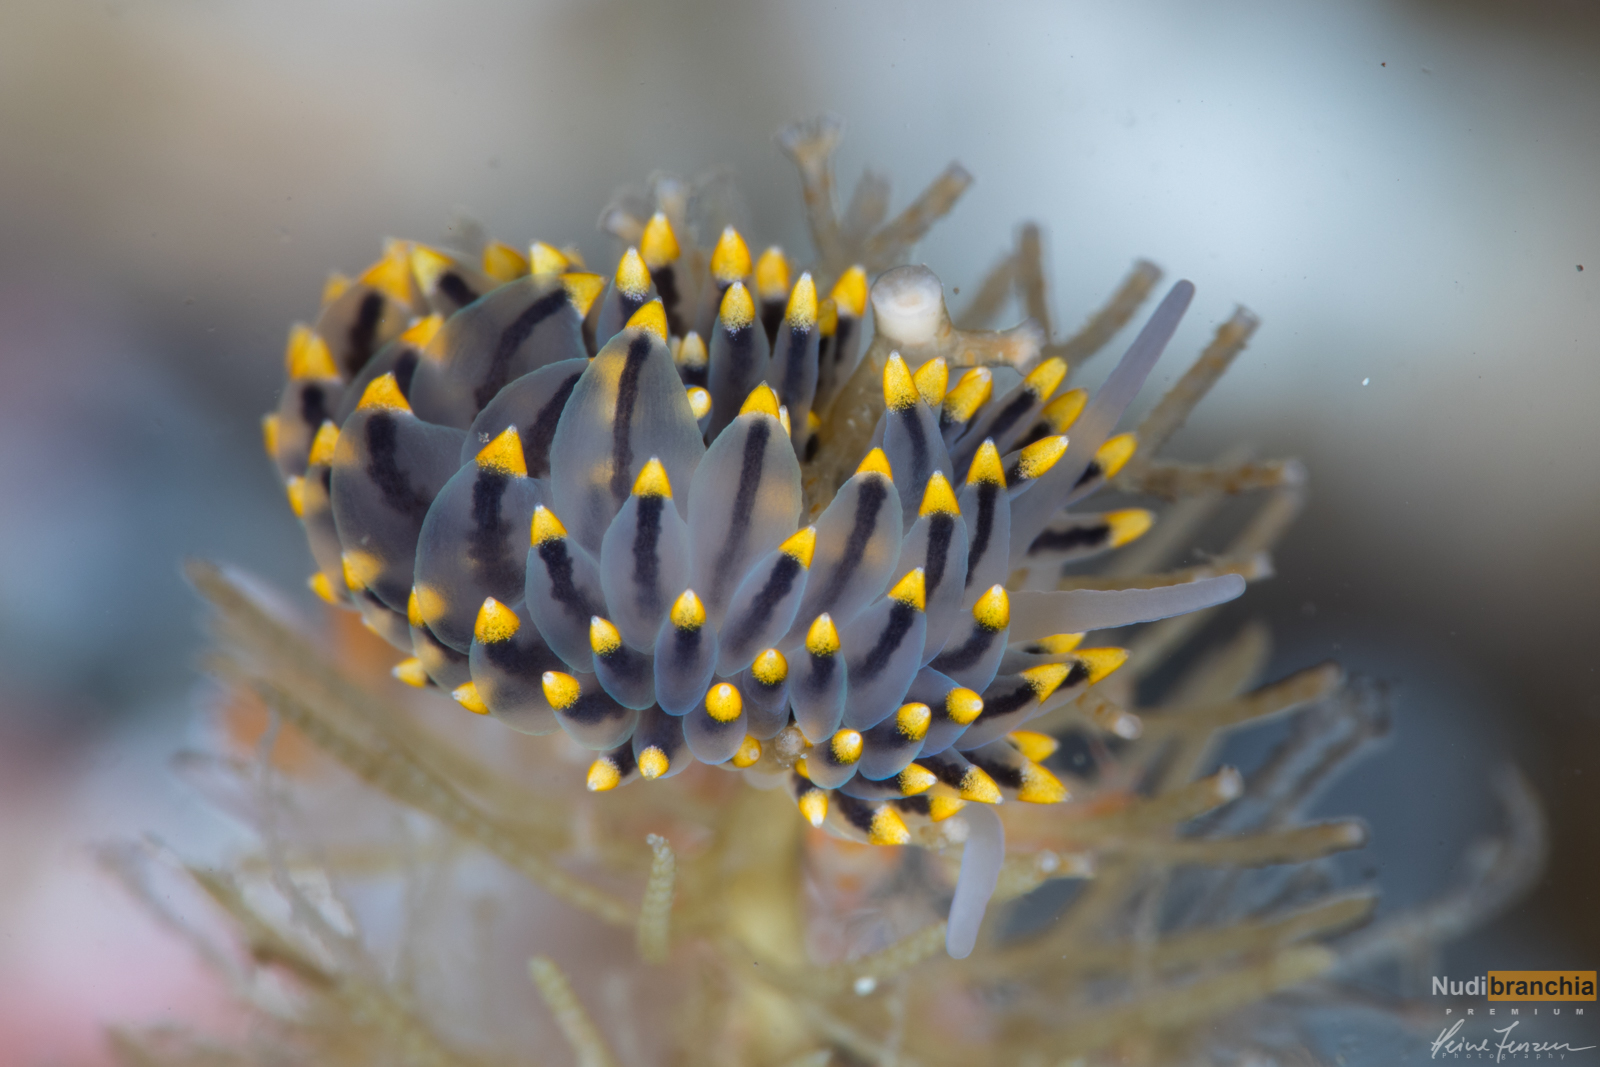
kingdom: Animalia
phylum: Mollusca
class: Gastropoda
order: Nudibranchia
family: Eubranchidae
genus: Eubranchus
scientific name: Eubranchus tricolor
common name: Painted balloon aeolis
